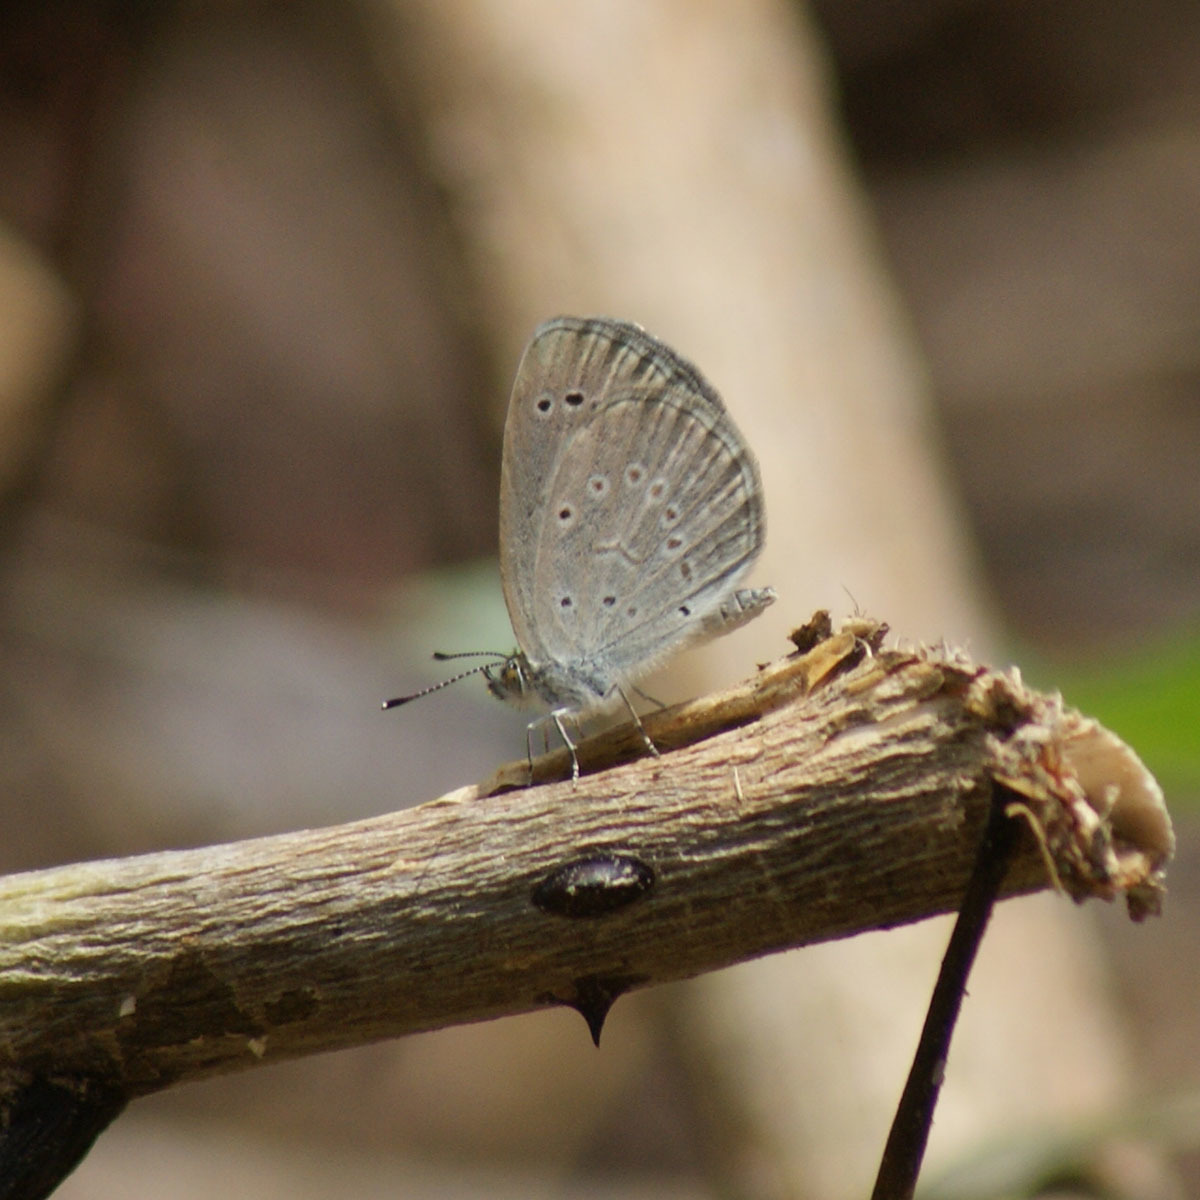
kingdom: Animalia
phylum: Arthropoda
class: Insecta
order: Lepidoptera
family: Lycaenidae
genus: Pseudozizeeria
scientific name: Pseudozizeeria maha
